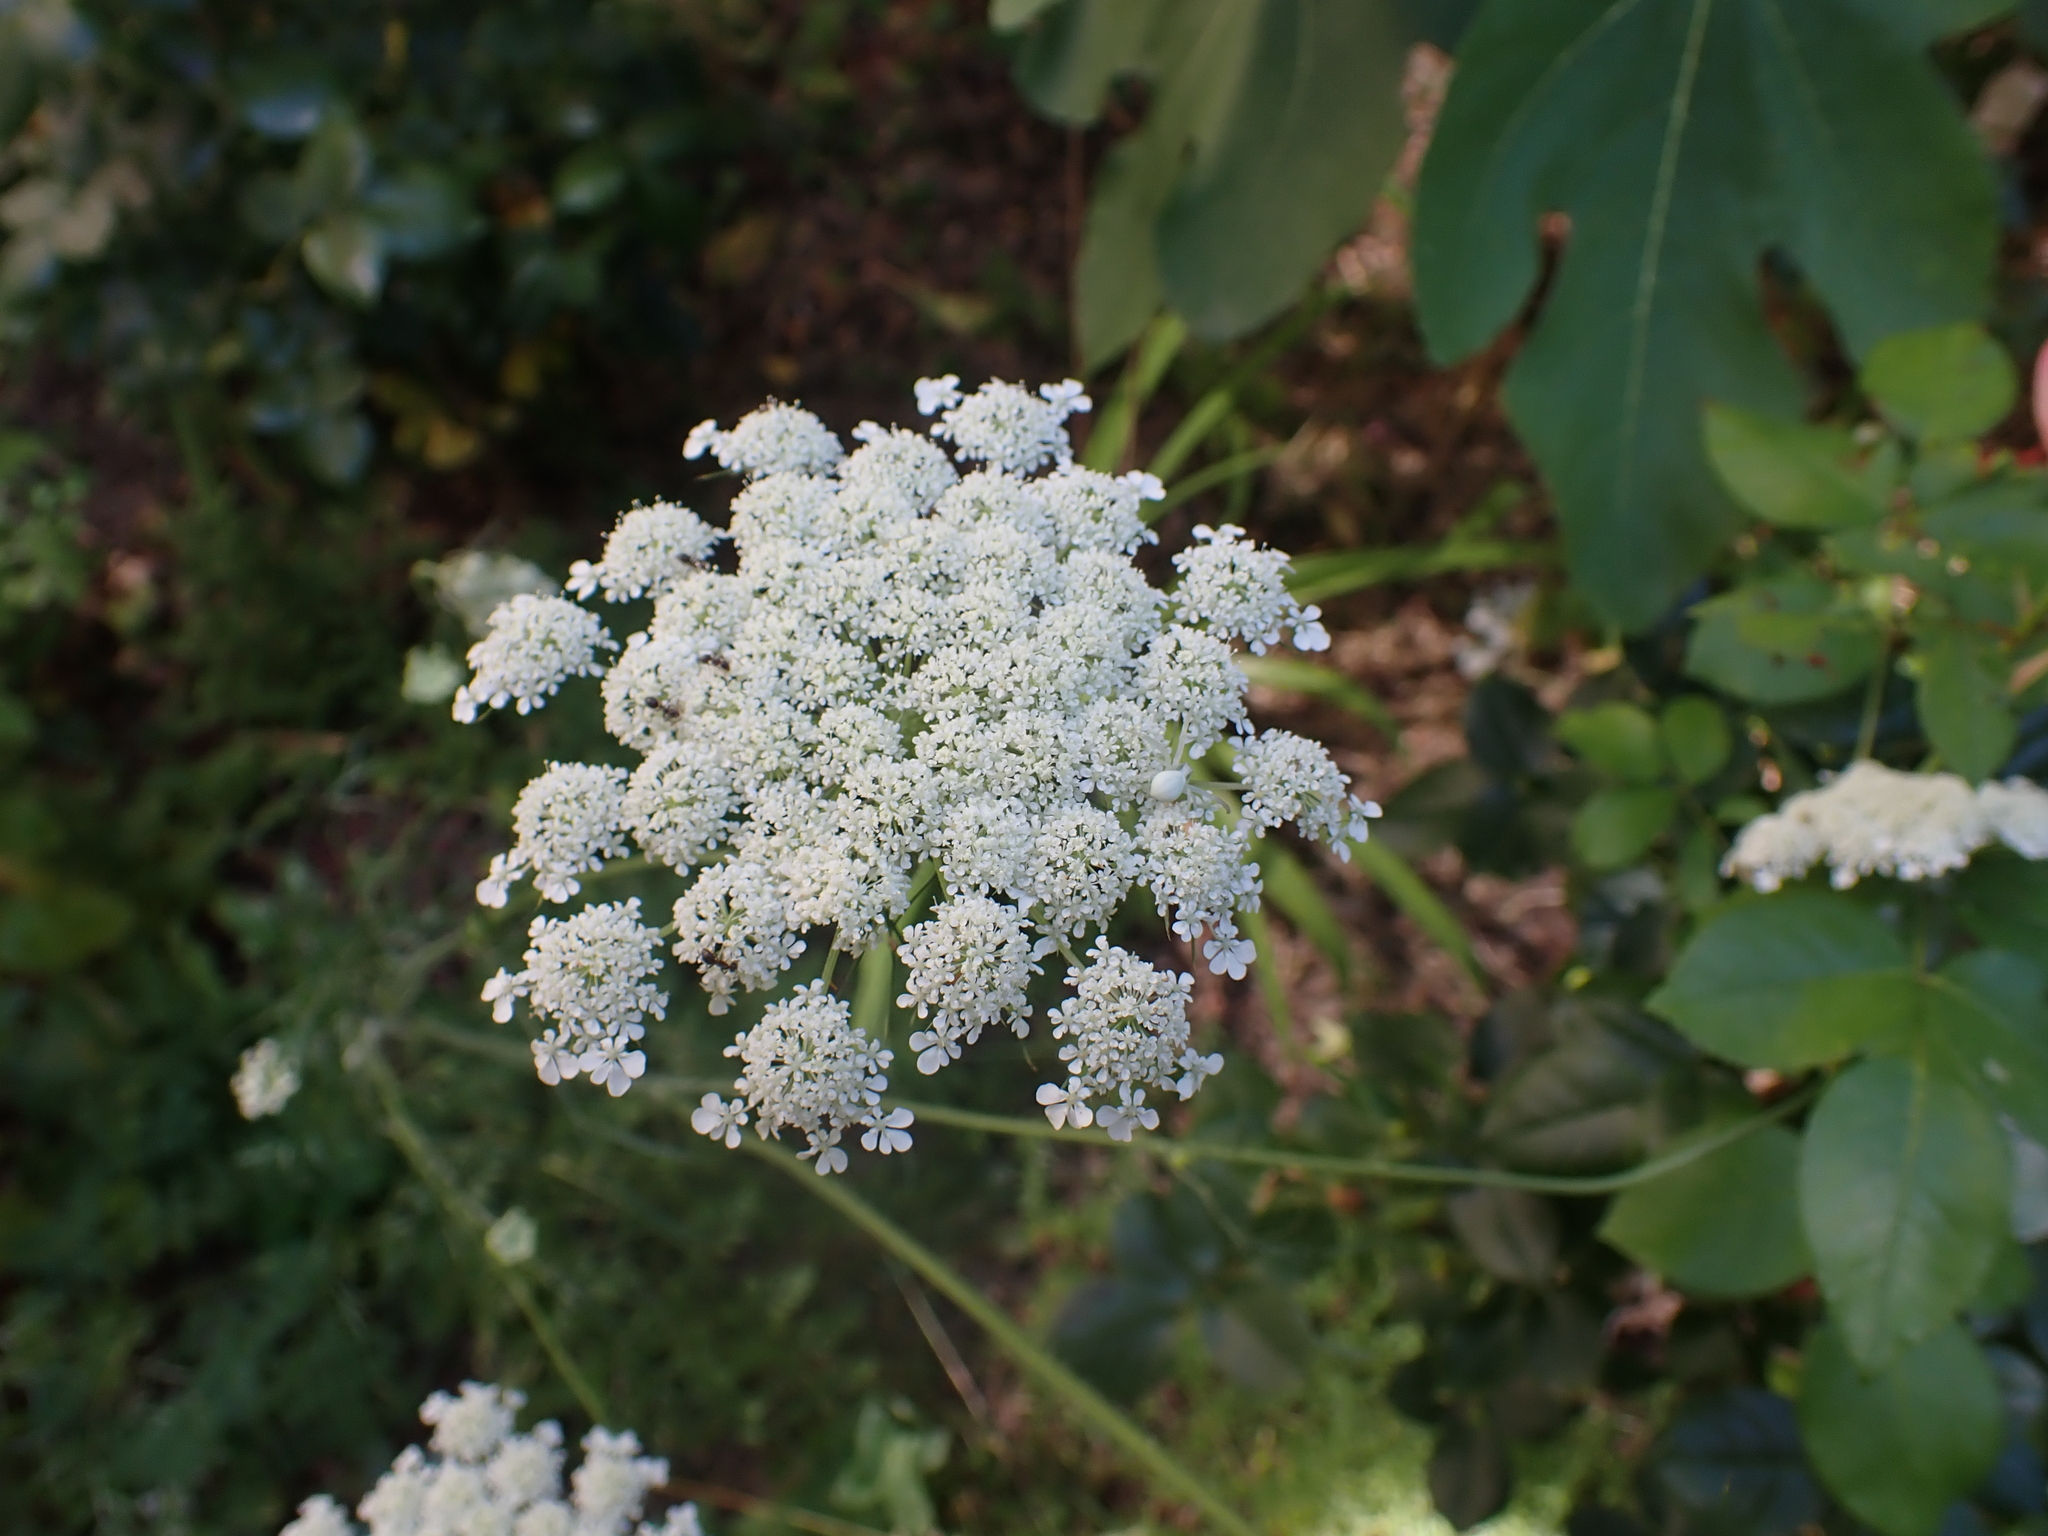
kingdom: Animalia
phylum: Arthropoda
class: Arachnida
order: Araneae
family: Thomisidae
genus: Misumena
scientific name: Misumena vatia
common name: Goldenrod crab spider
